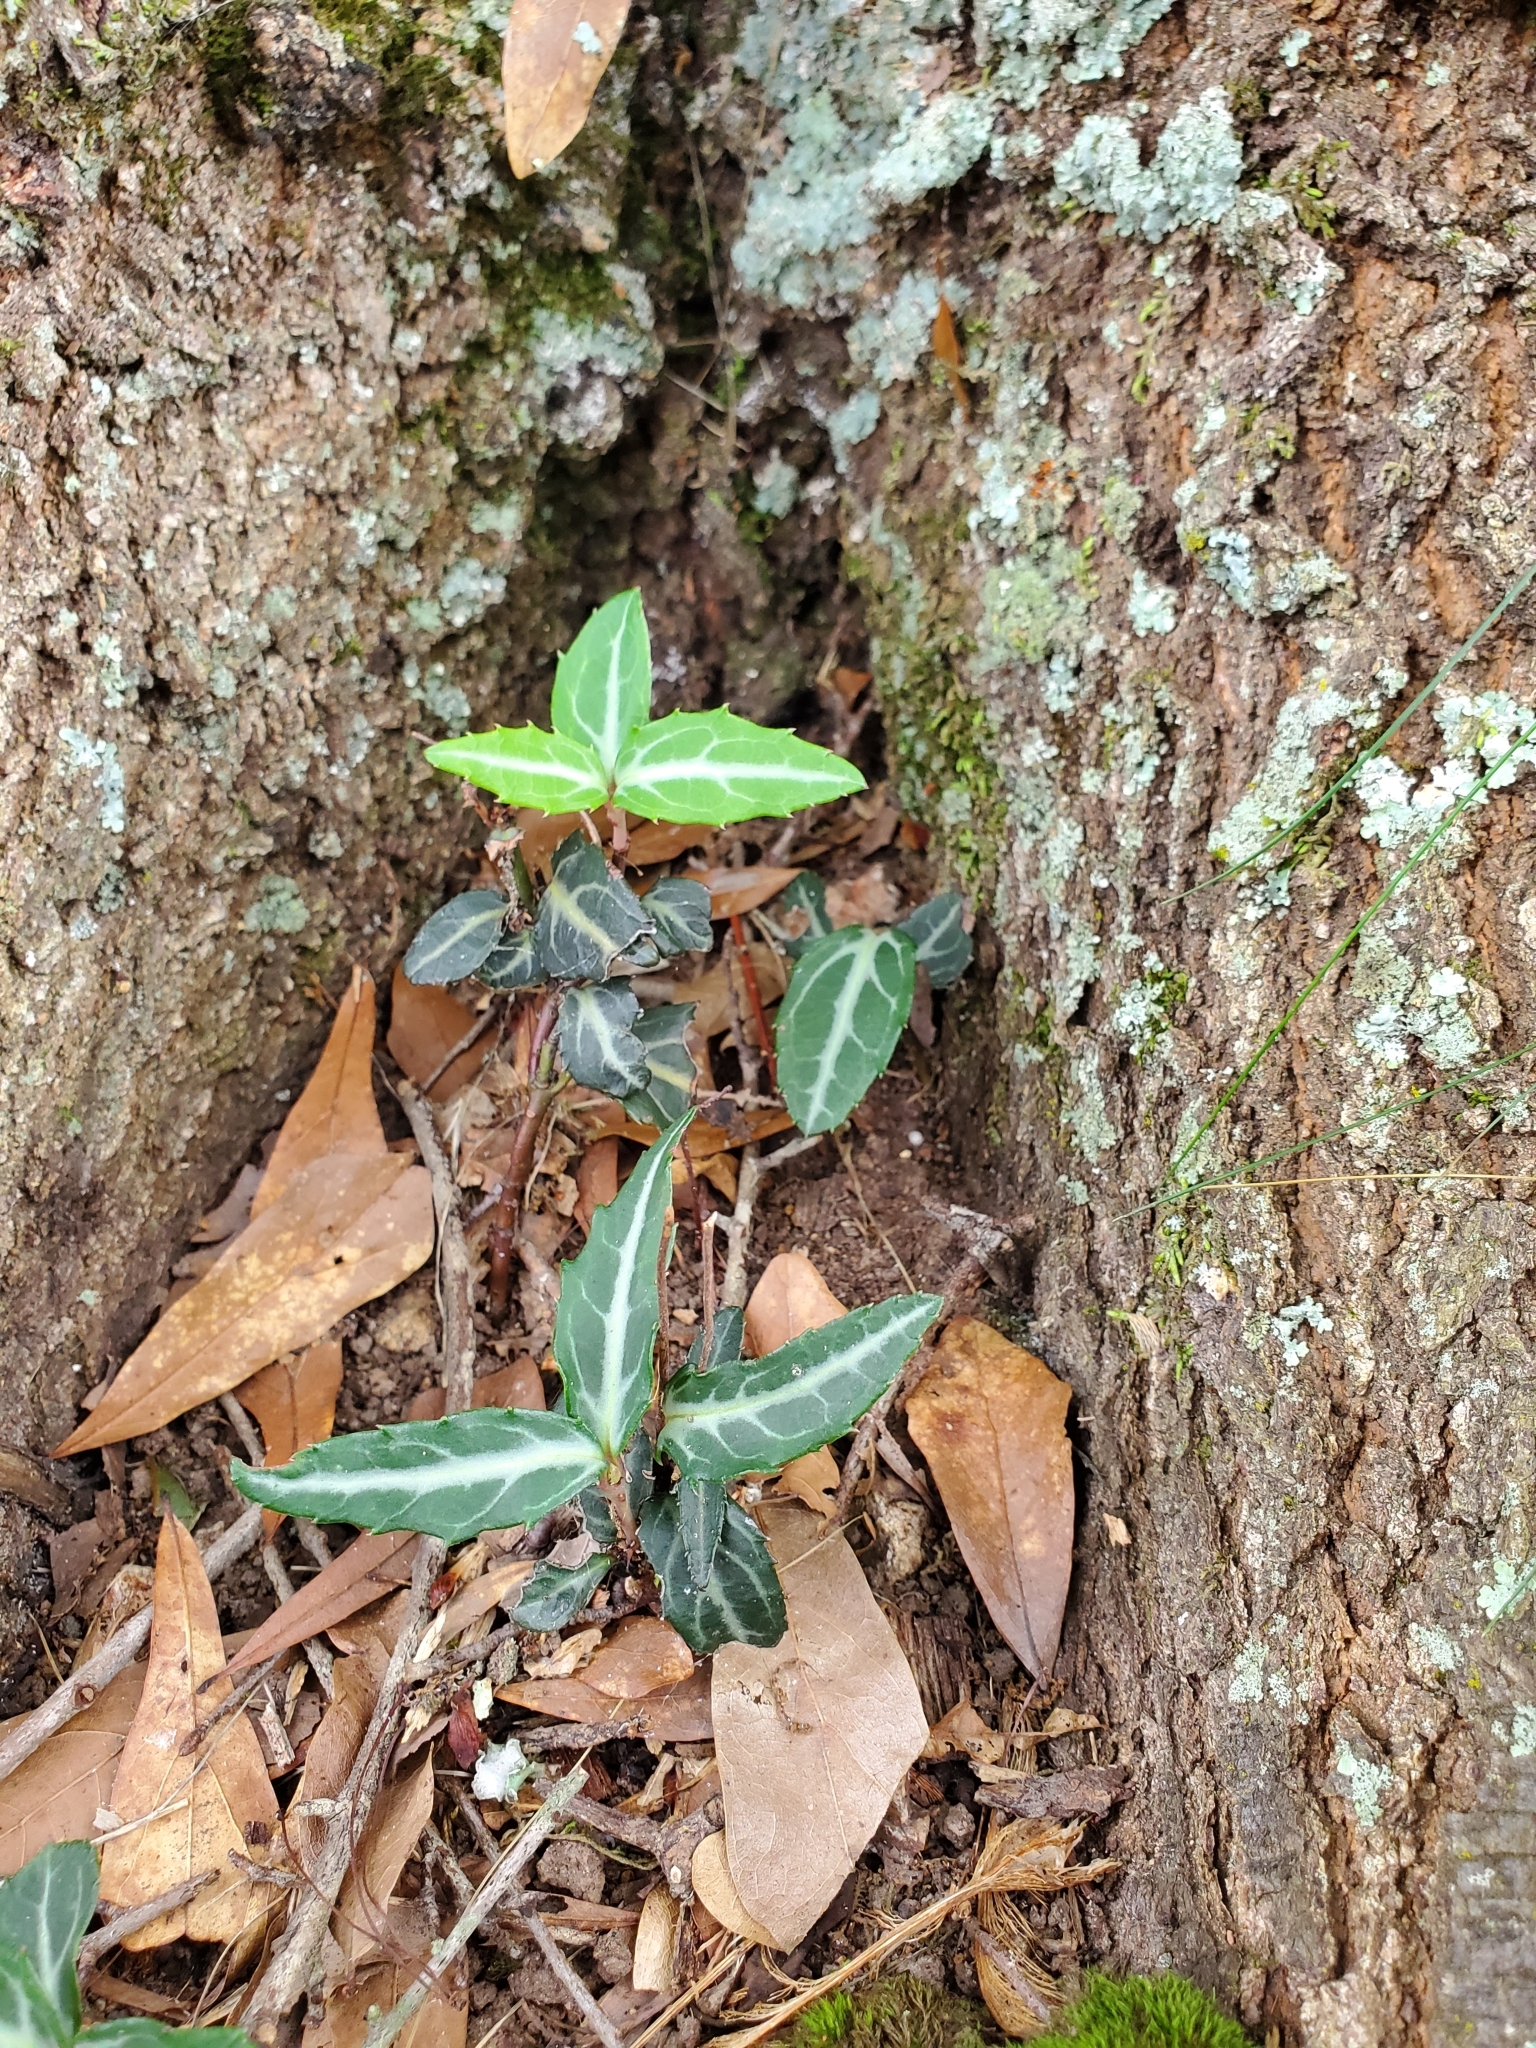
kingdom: Plantae
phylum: Tracheophyta
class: Magnoliopsida
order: Ericales
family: Ericaceae
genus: Chimaphila
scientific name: Chimaphila maculata
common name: Spotted pipsissewa
